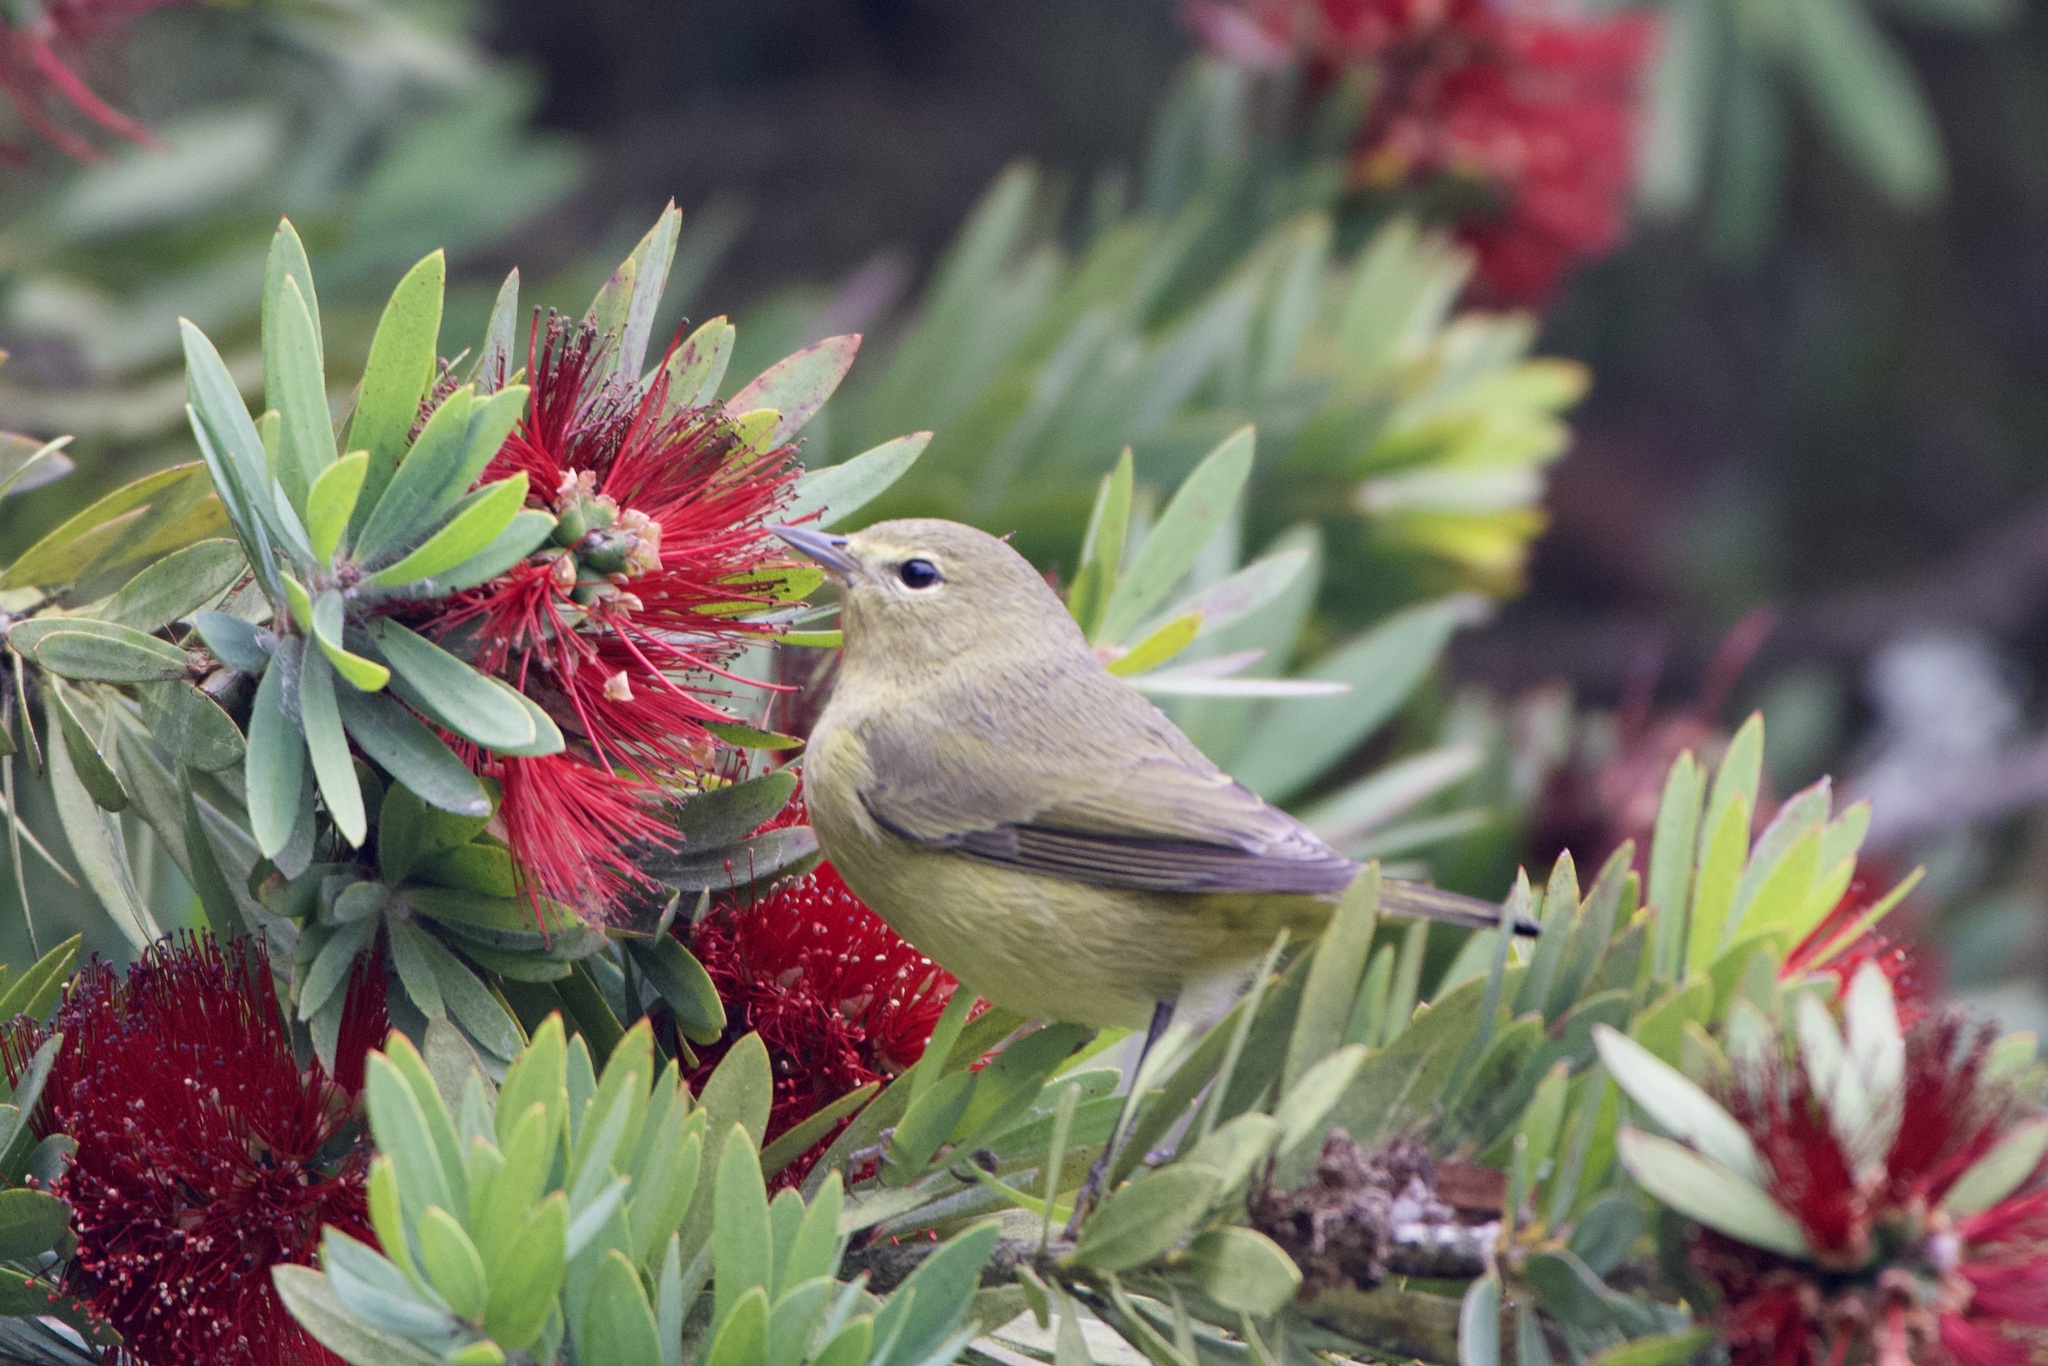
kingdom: Animalia
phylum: Chordata
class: Aves
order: Passeriformes
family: Parulidae
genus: Leiothlypis
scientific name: Leiothlypis celata
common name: Orange-crowned warbler
